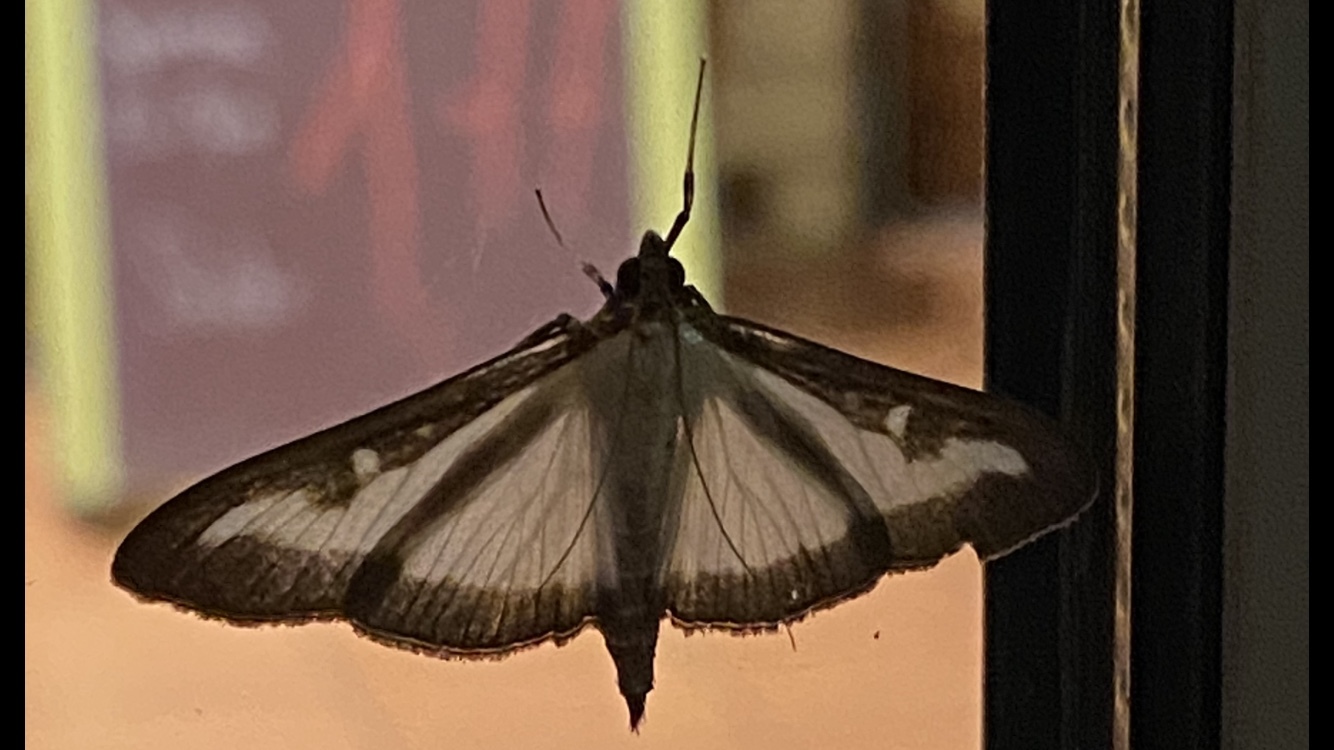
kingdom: Animalia
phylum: Arthropoda
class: Insecta
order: Lepidoptera
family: Crambidae
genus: Cydalima
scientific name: Cydalima perspectalis
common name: Box tree moth
